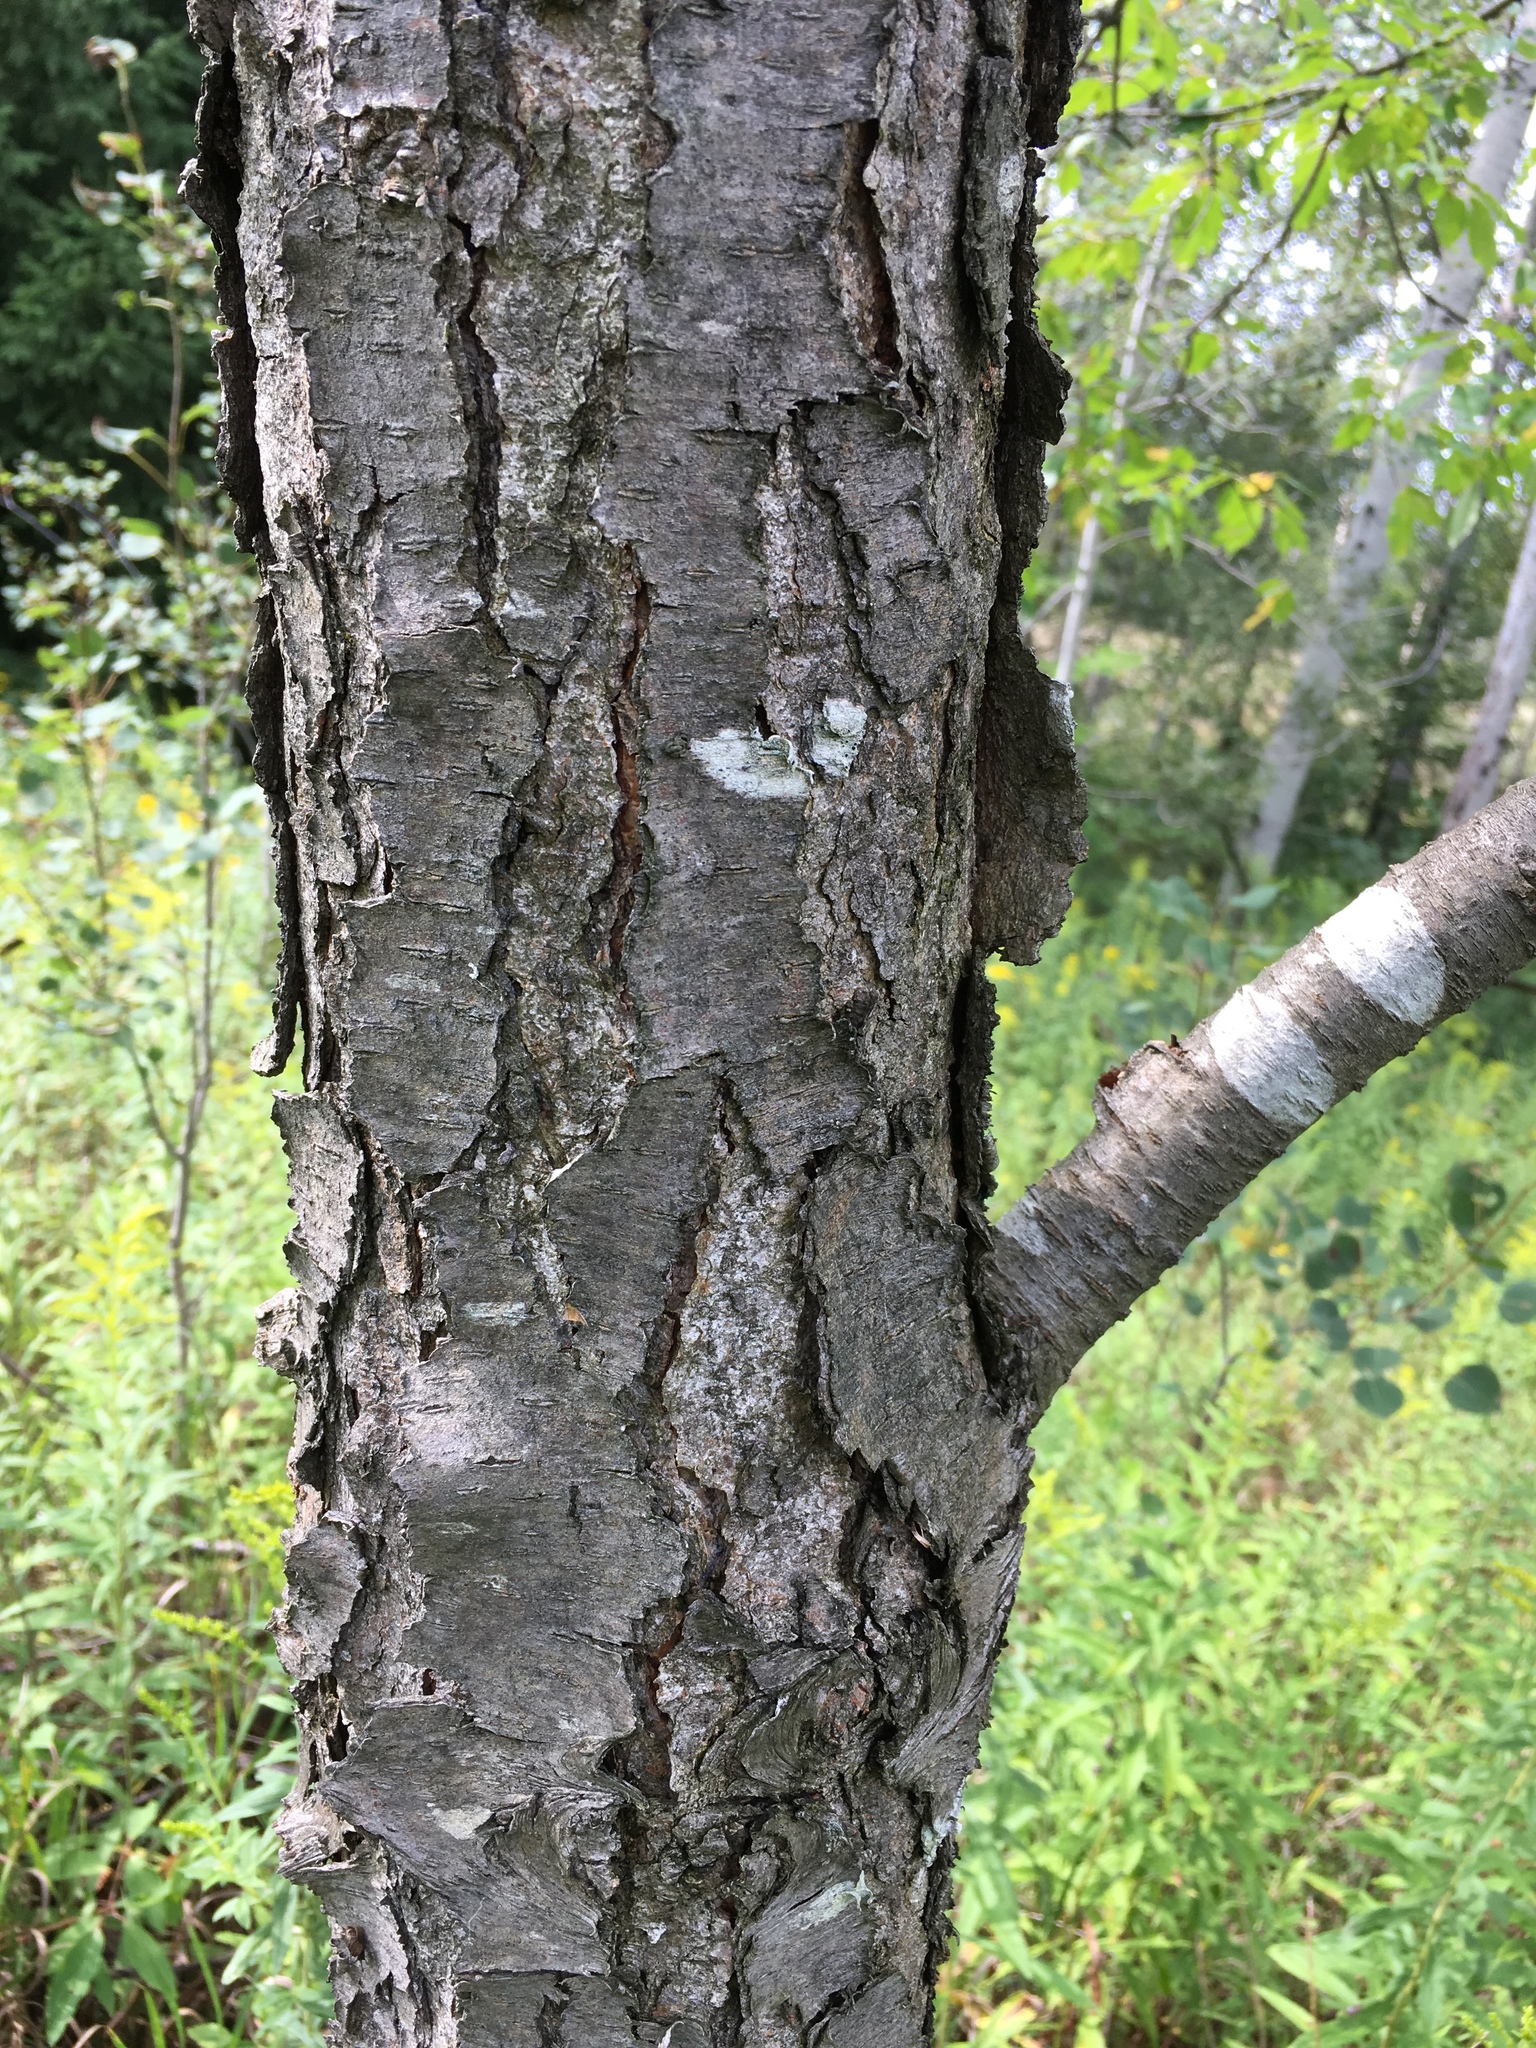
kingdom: Plantae
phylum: Tracheophyta
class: Magnoliopsida
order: Rosales
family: Rosaceae
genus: Prunus
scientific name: Prunus serotina
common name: Black cherry
